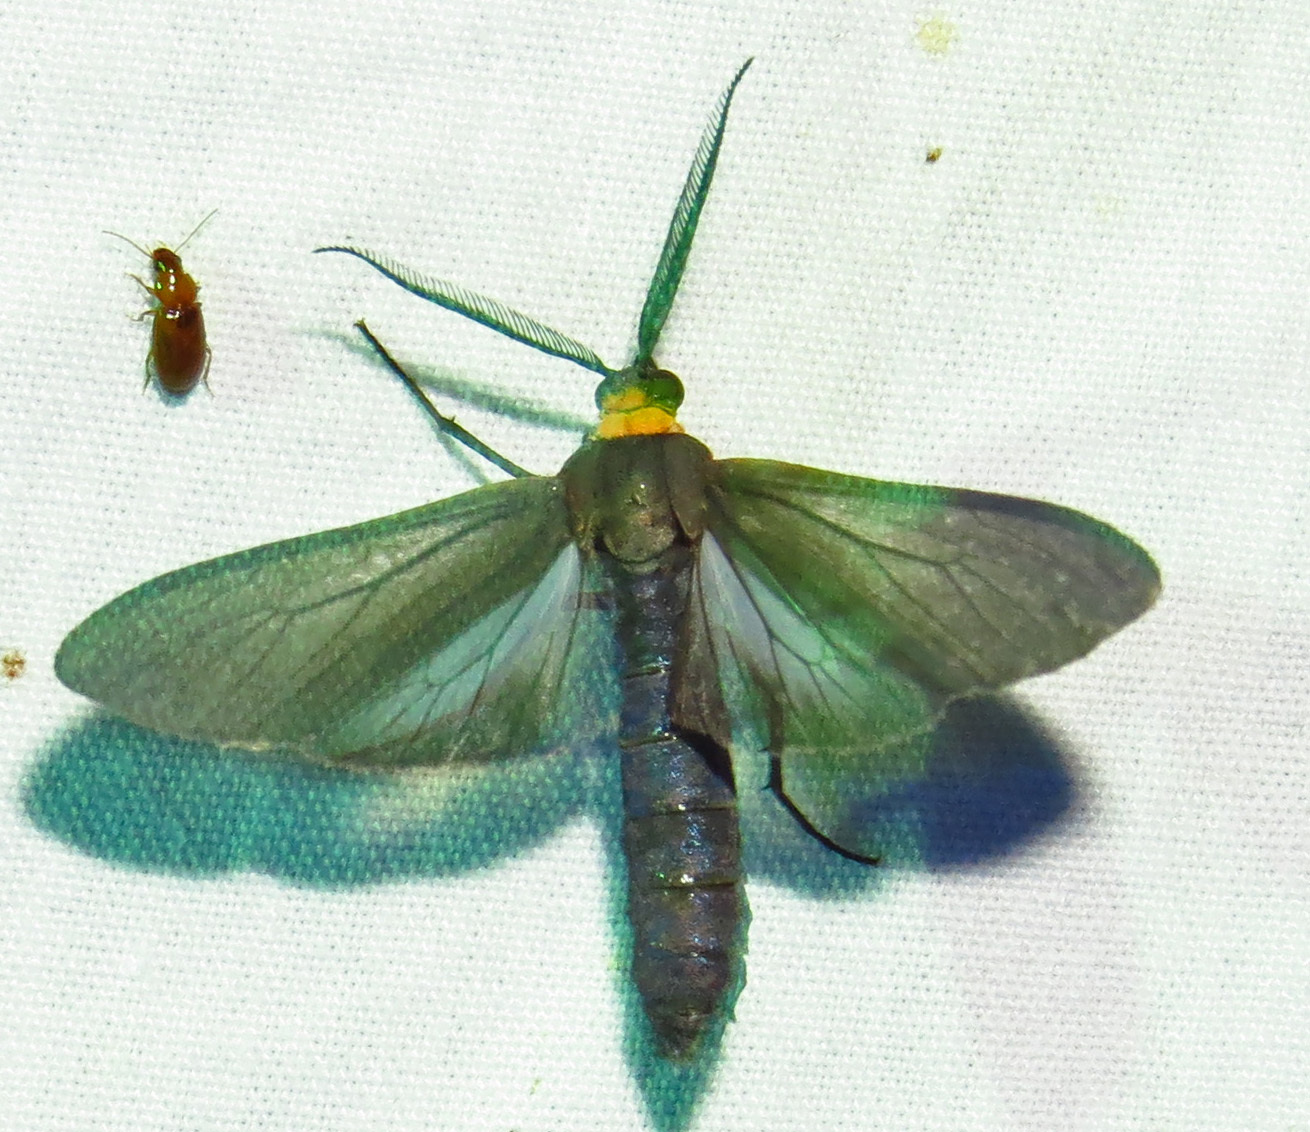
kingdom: Animalia
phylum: Arthropoda
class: Insecta
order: Lepidoptera
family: Erebidae
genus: Cisseps
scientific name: Cisseps fulvicollis
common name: Yellow-collared scape moth
